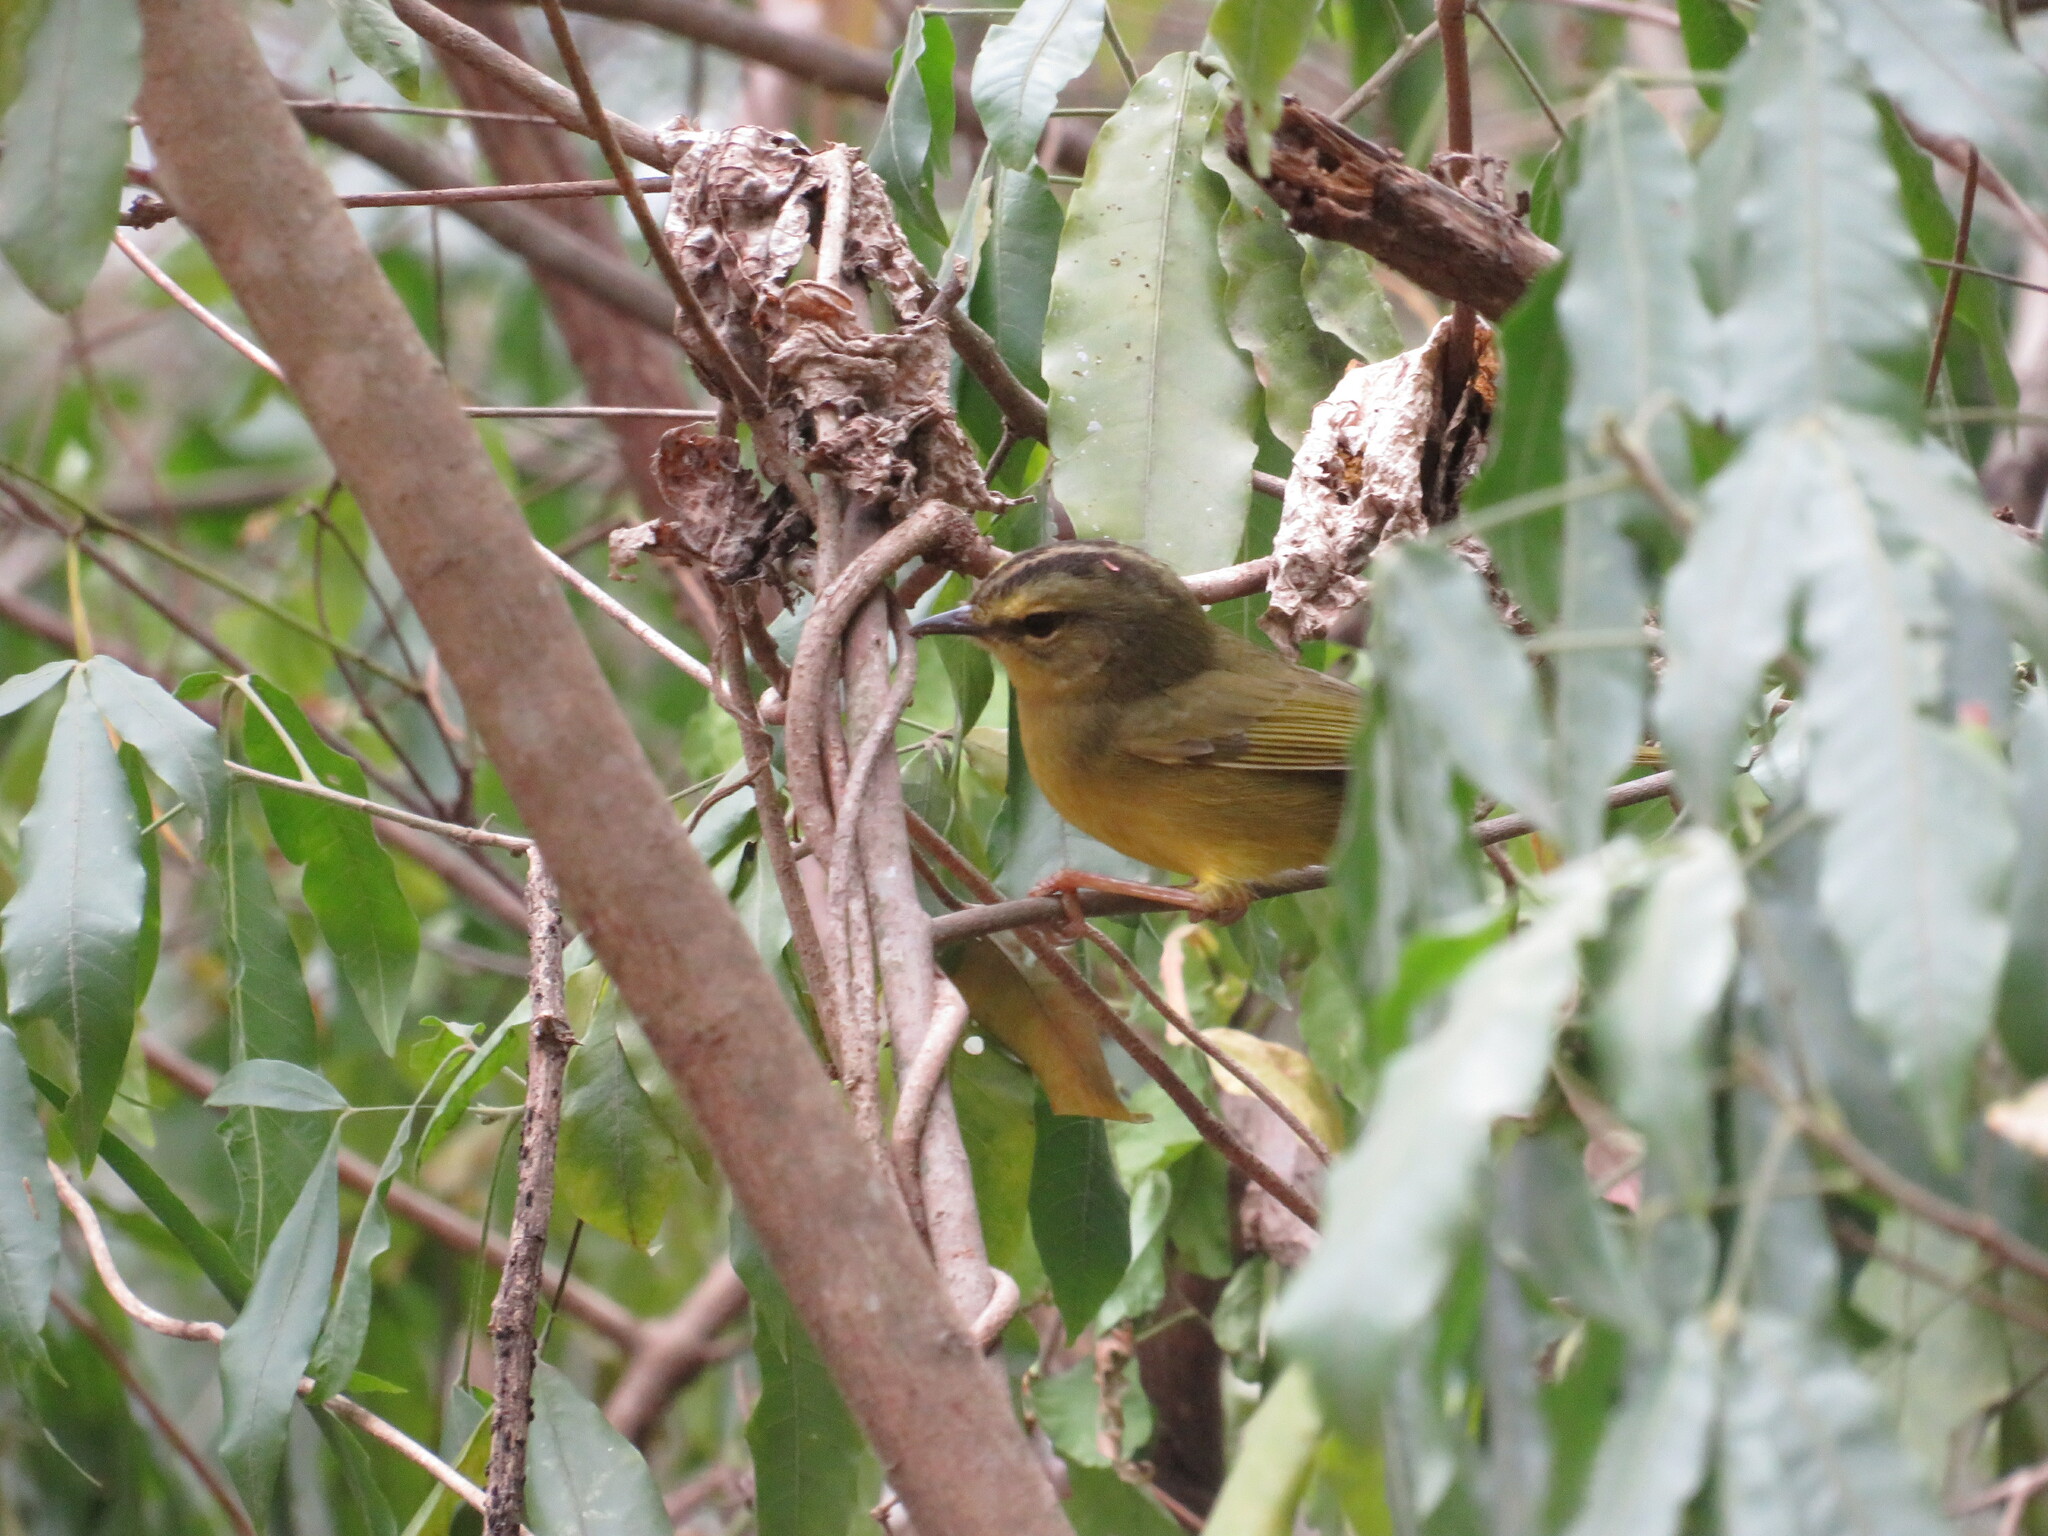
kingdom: Animalia
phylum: Chordata
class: Aves
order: Passeriformes
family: Parulidae
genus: Myiothlypis
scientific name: Myiothlypis bivittata
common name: Two-banded warbler
